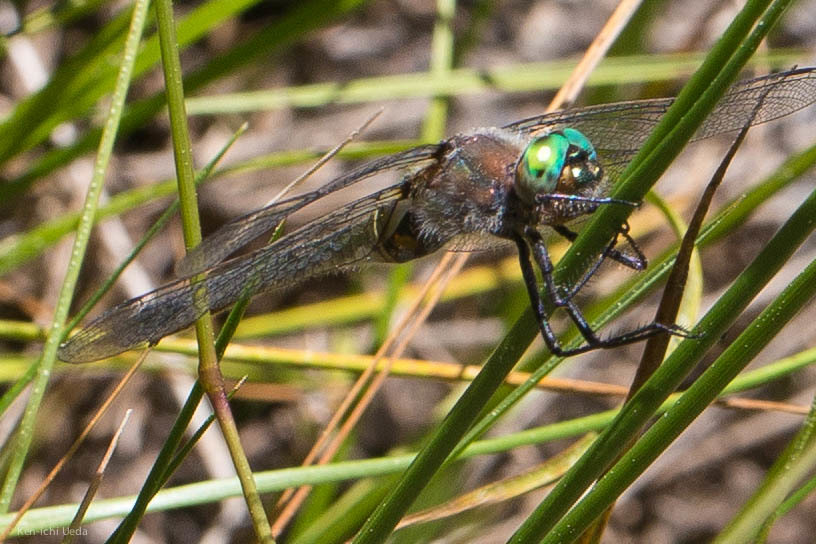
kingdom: Animalia
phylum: Arthropoda
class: Insecta
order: Odonata
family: Corduliidae
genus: Cordulia
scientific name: Cordulia shurtleffii
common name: American emerald
